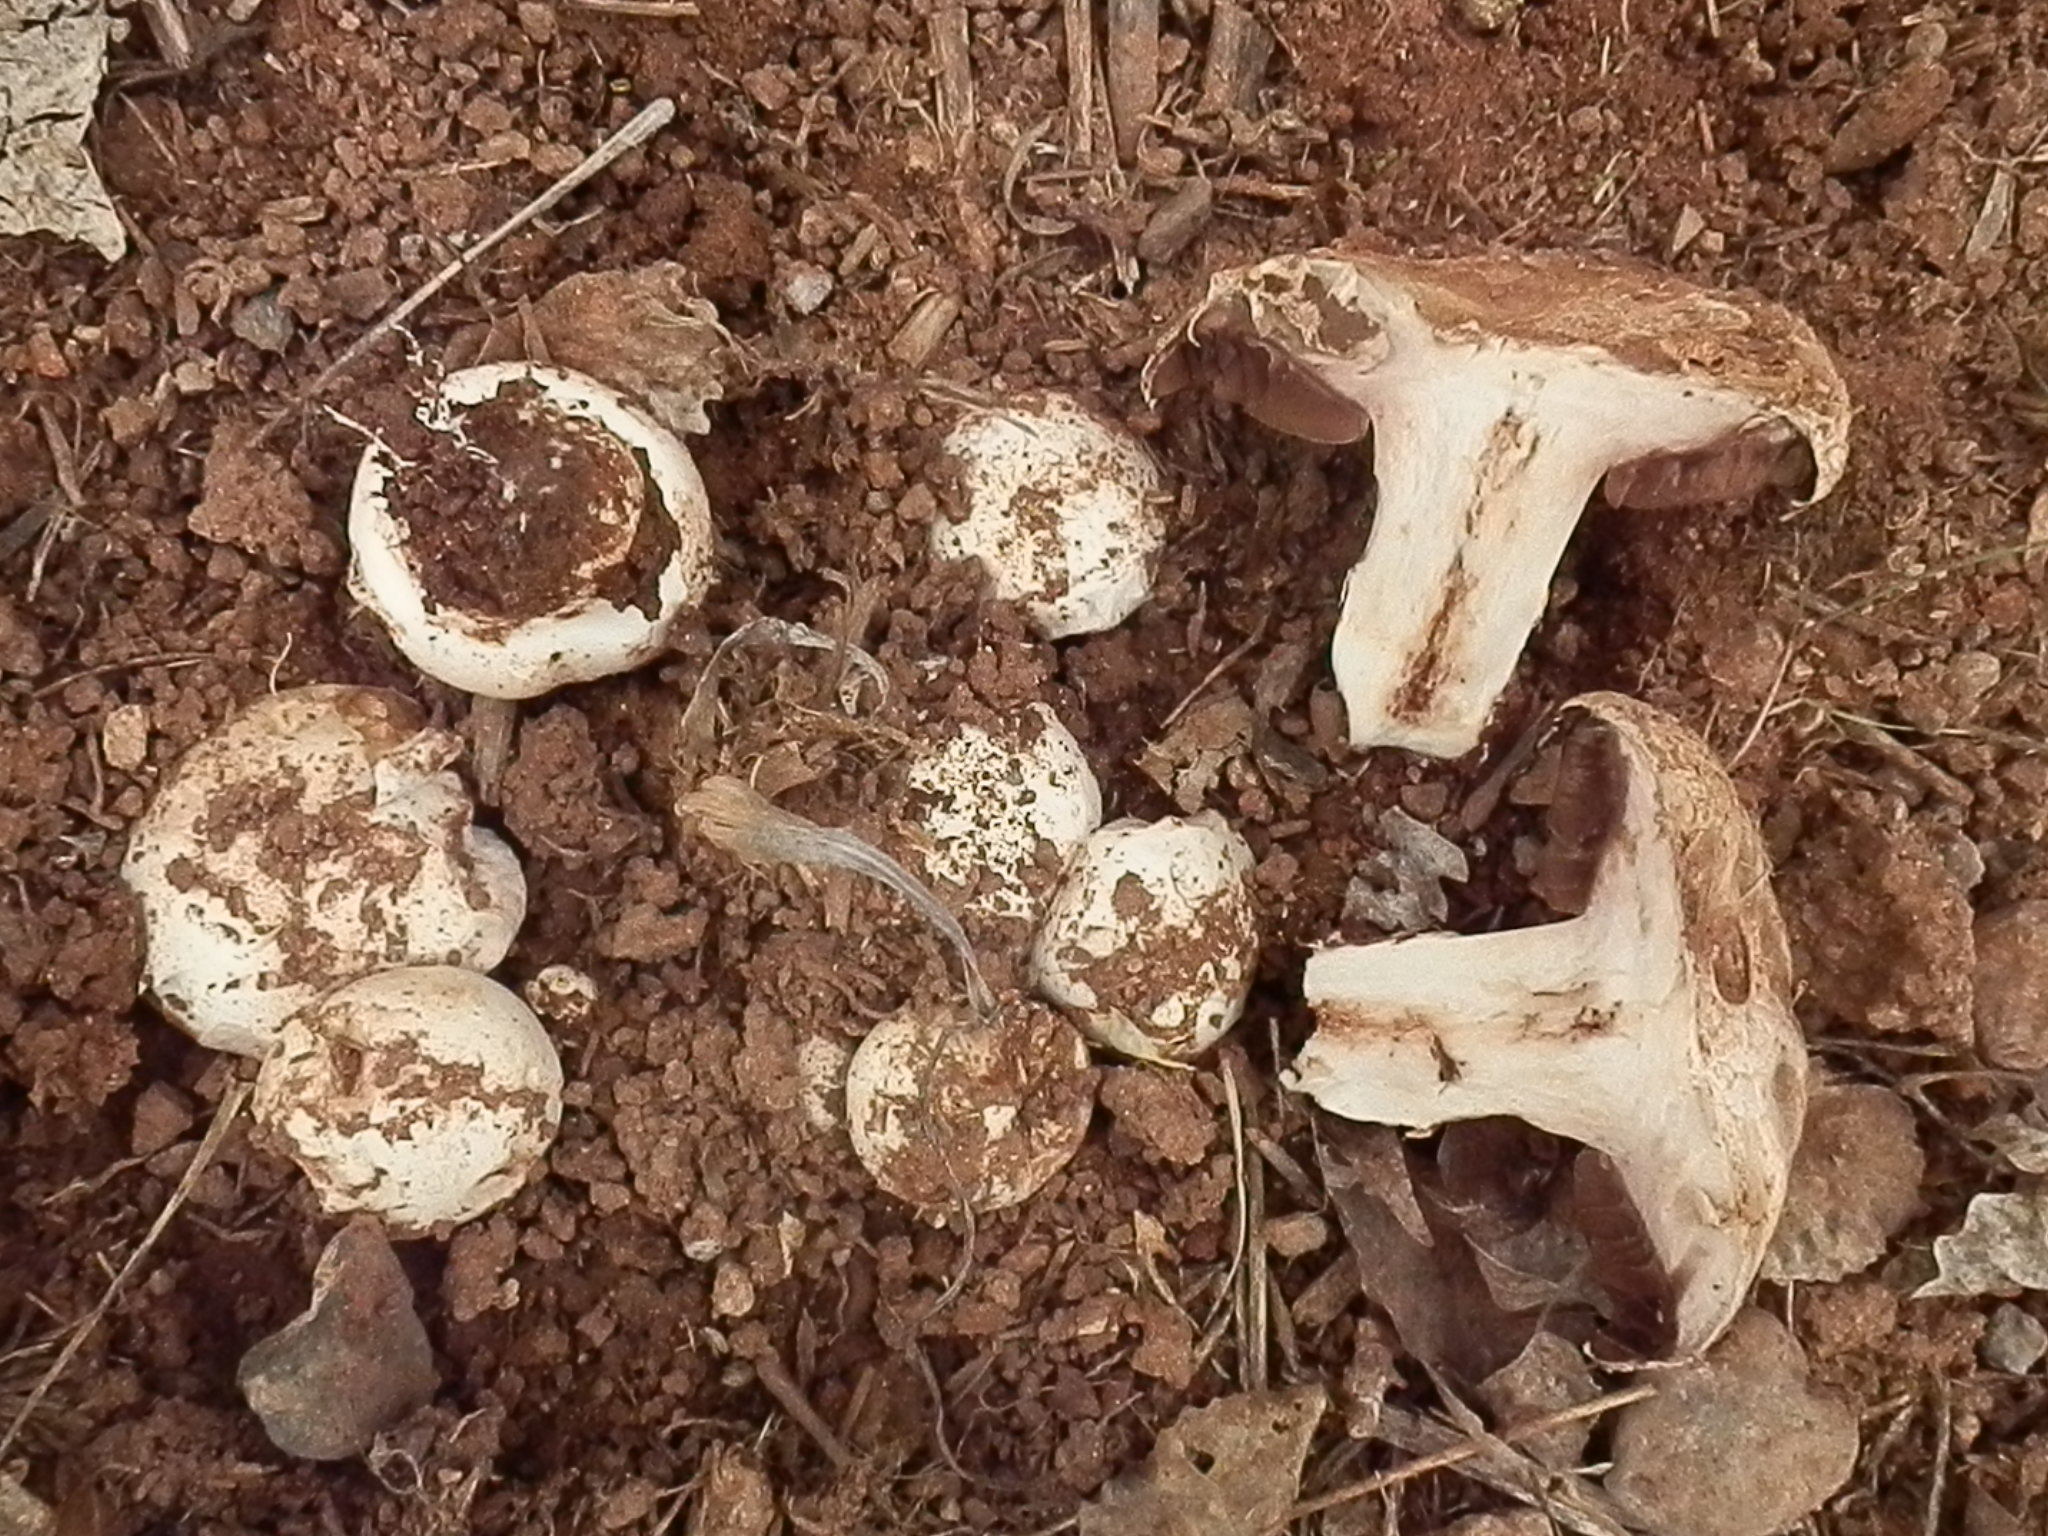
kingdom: Fungi
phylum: Basidiomycota
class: Agaricomycetes
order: Agaricales
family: Agaricaceae
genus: Agaricus
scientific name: Agaricus bitorquis
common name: Pavement mushroom
